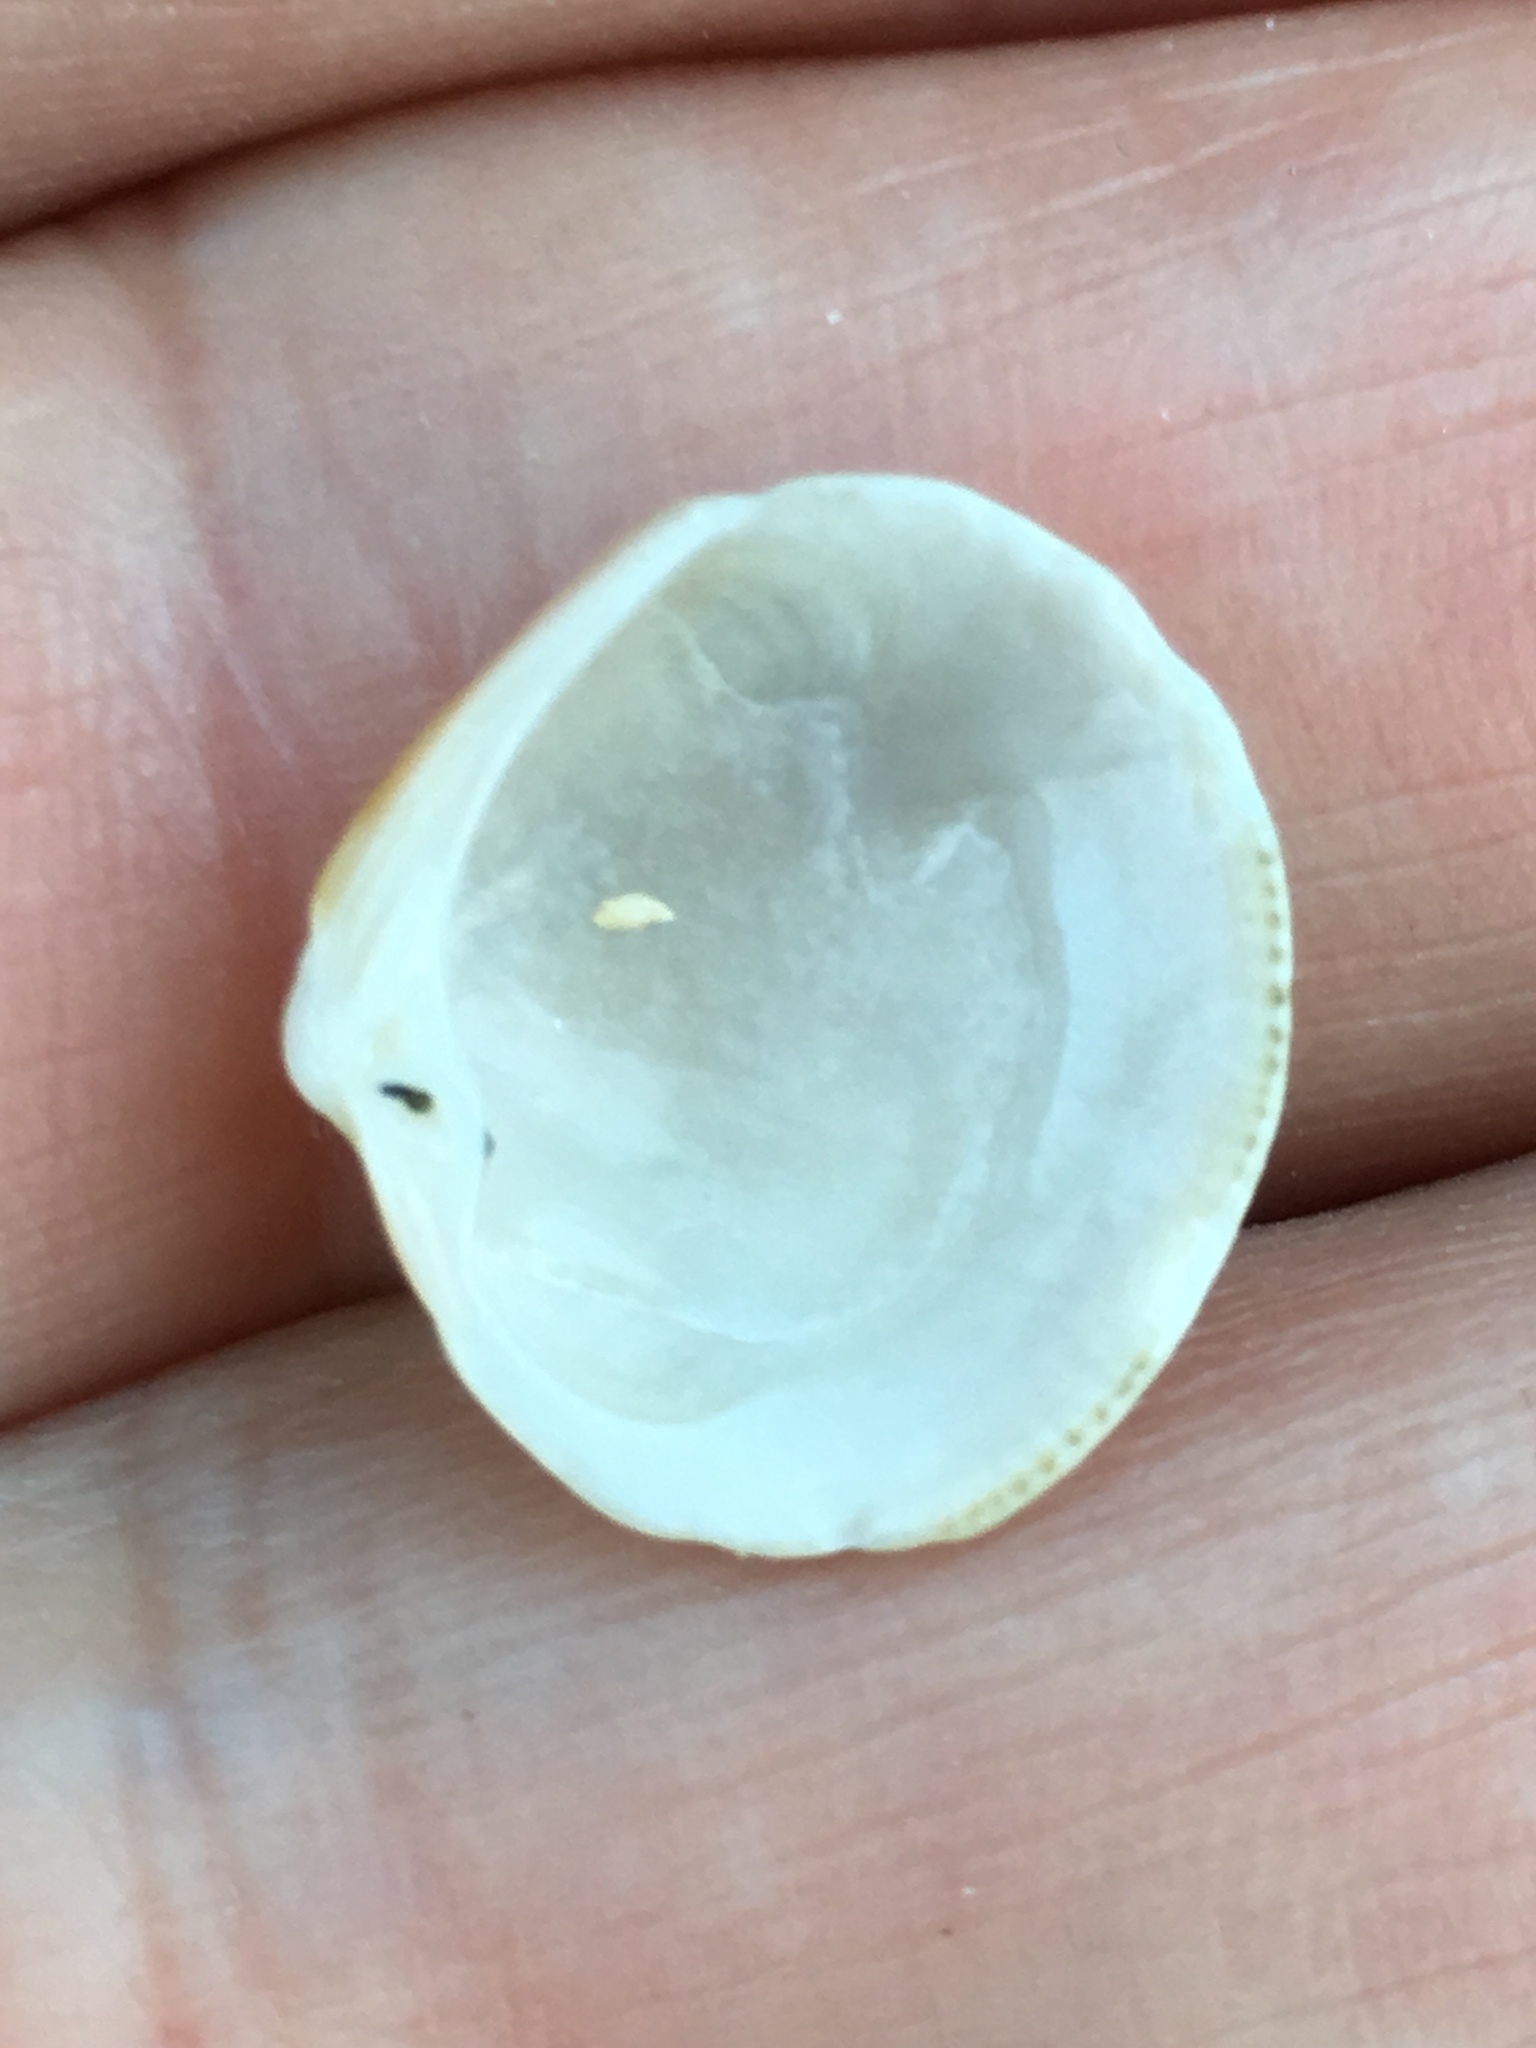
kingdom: Animalia
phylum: Mollusca
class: Bivalvia
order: Venerida
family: Veneridae
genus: Chionopsis
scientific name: Chionopsis intapurpurea
